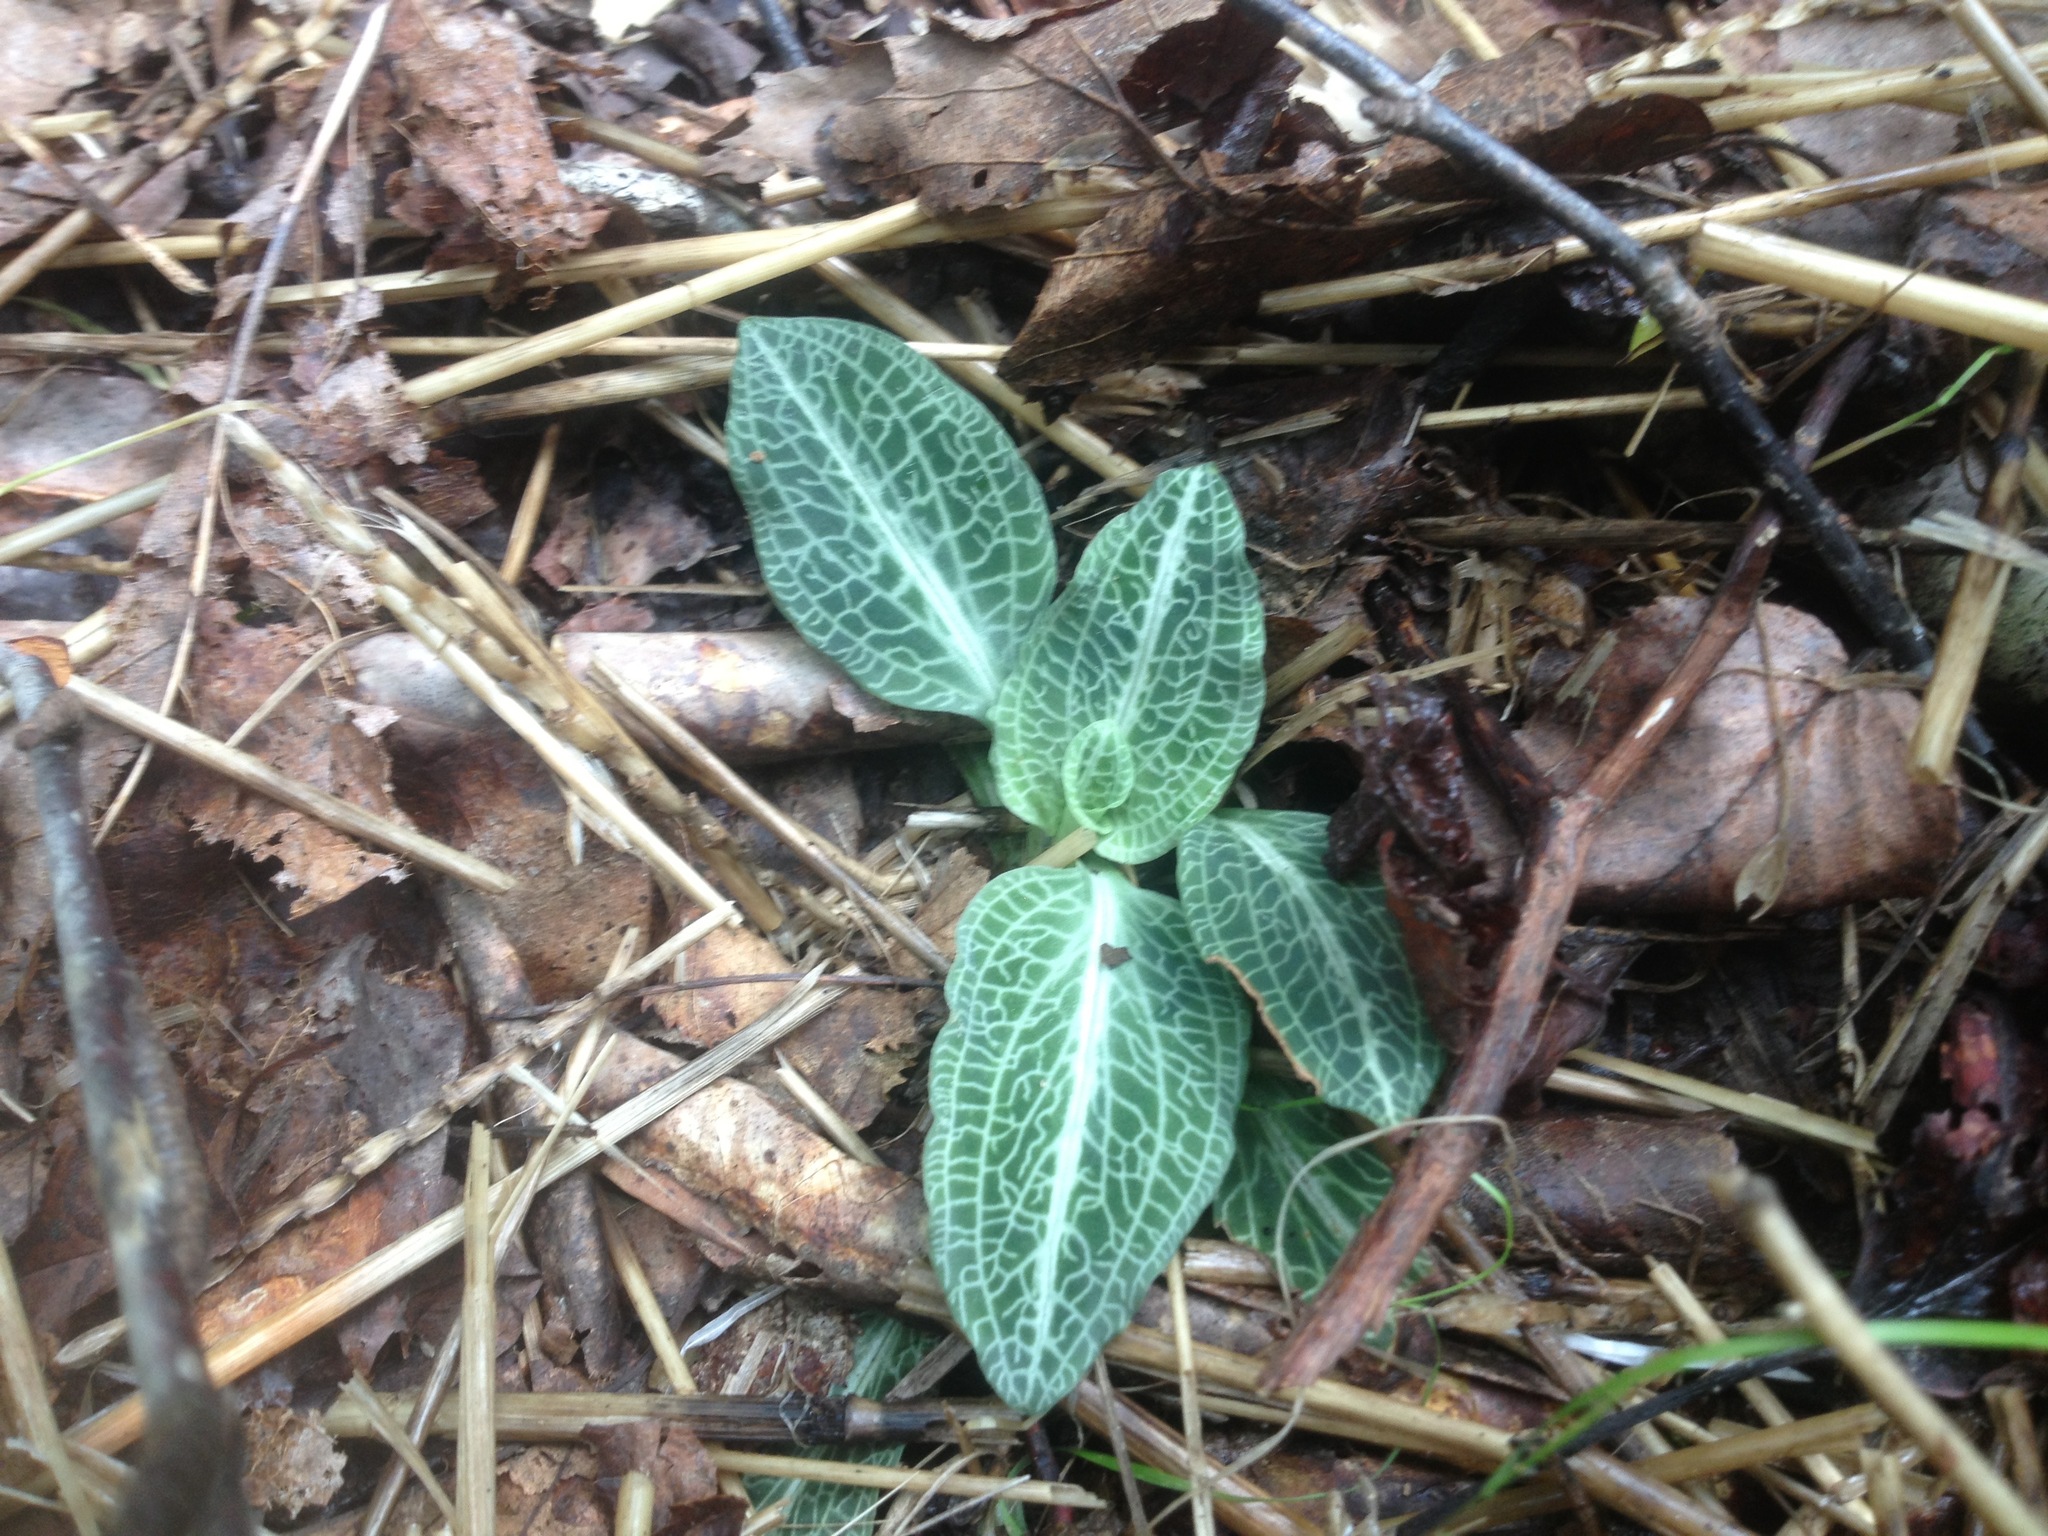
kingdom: Plantae
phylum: Tracheophyta
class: Liliopsida
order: Asparagales
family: Orchidaceae
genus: Goodyera
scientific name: Goodyera pubescens
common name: Downy rattlesnake-plantain
